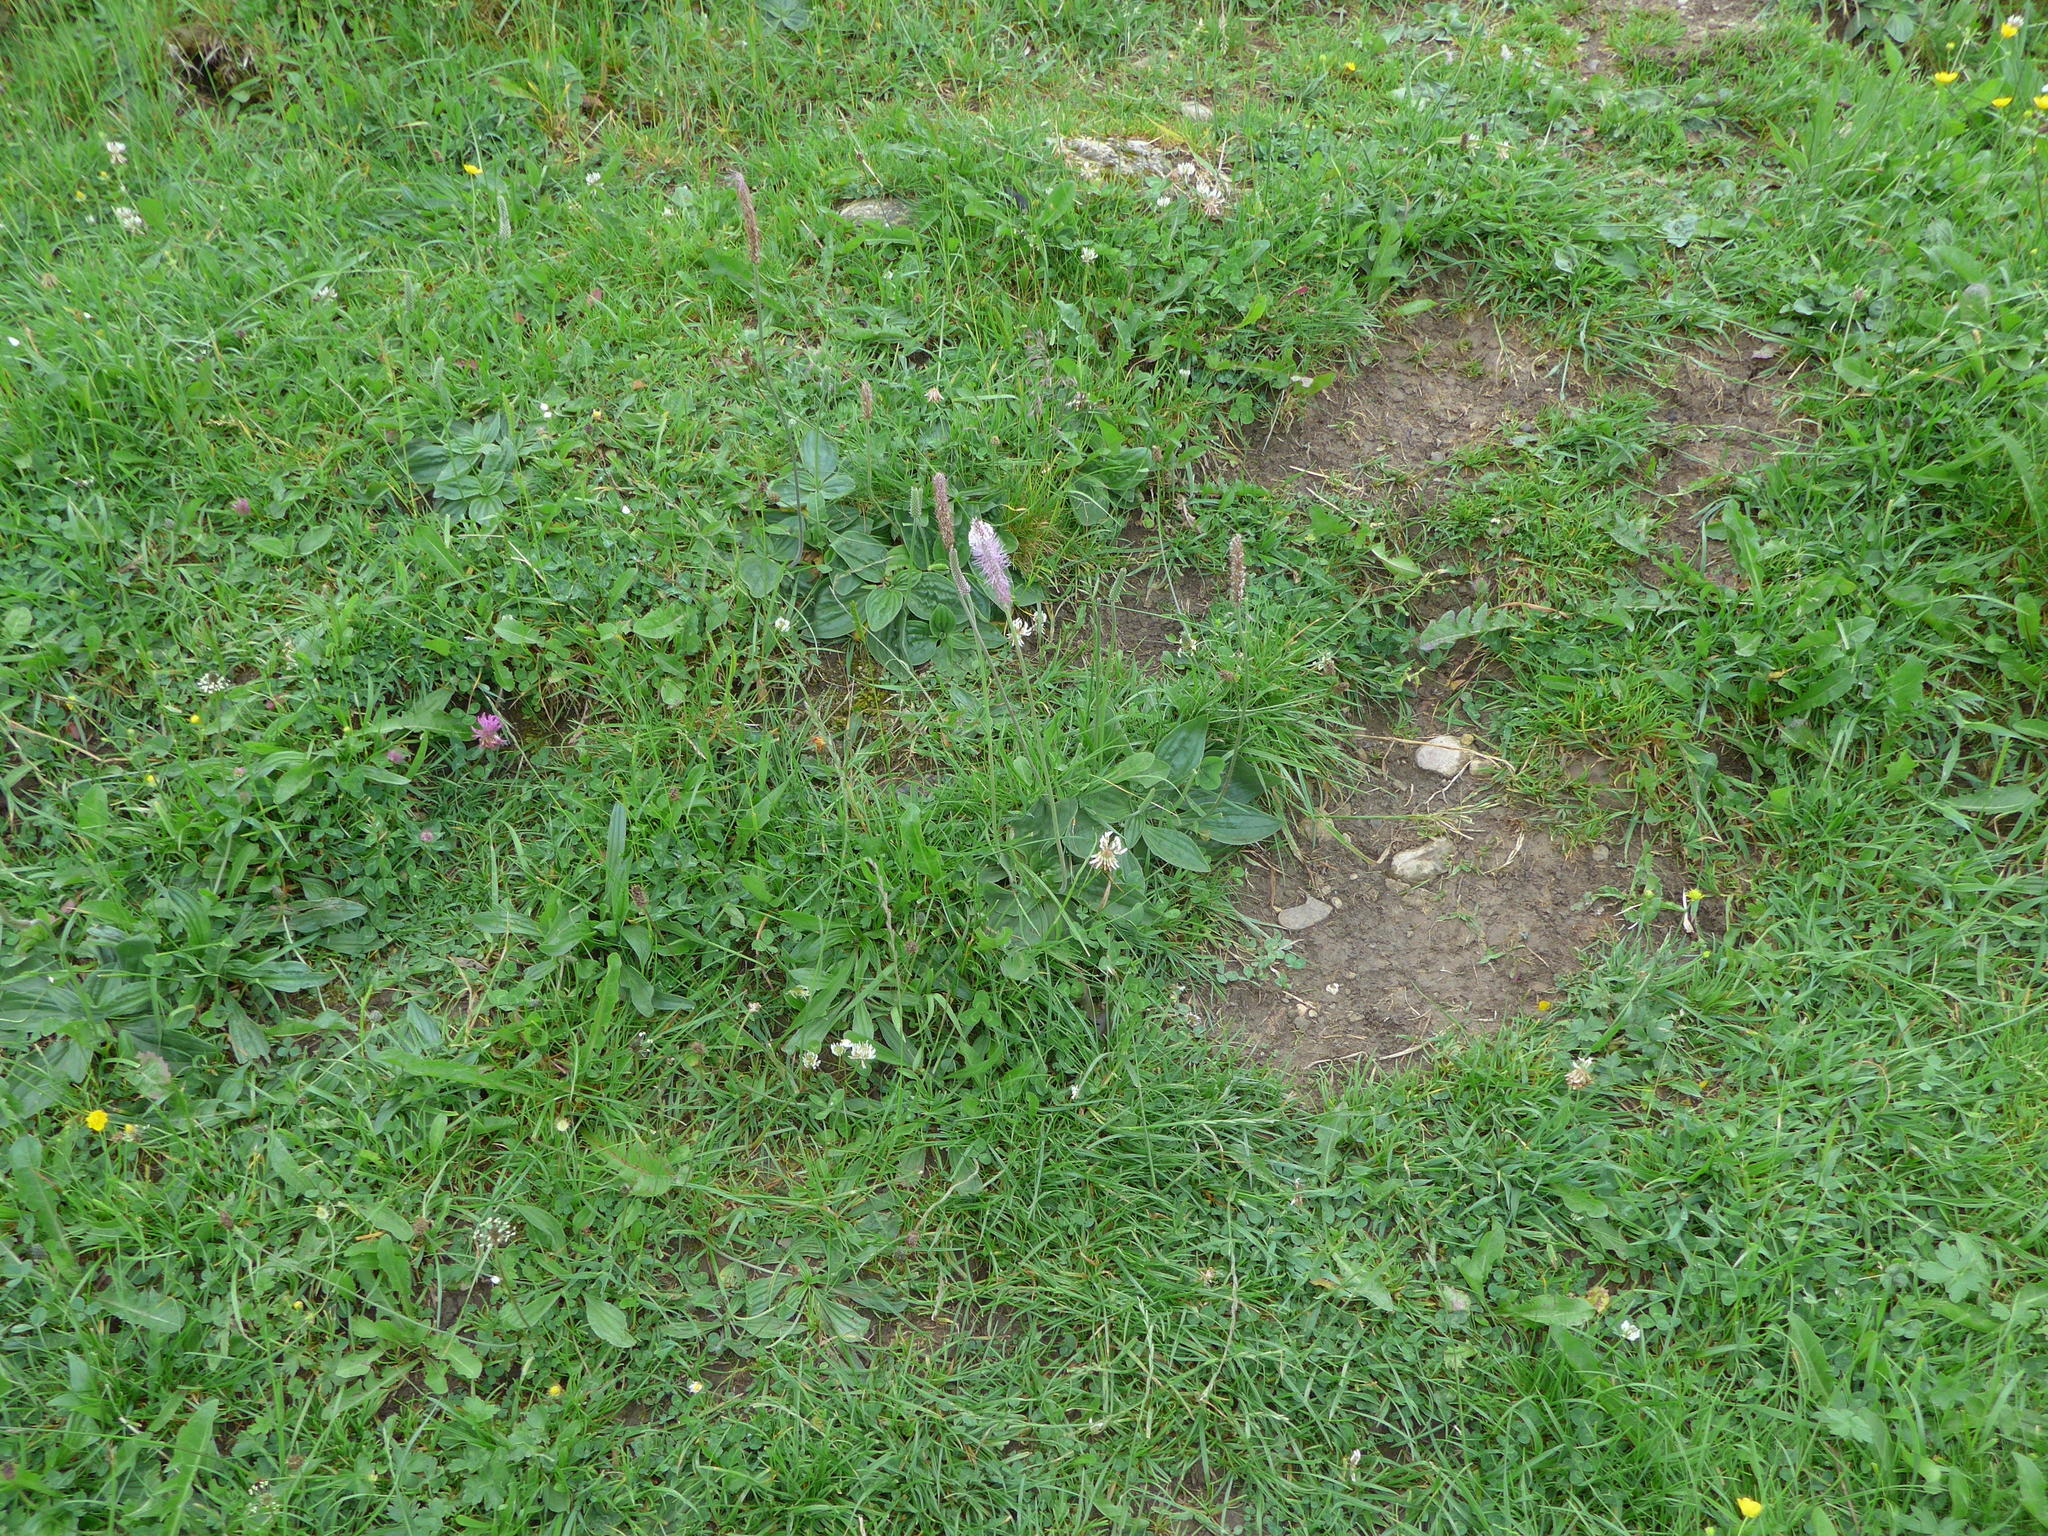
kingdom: Plantae
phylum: Tracheophyta
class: Magnoliopsida
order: Lamiales
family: Plantaginaceae
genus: Plantago
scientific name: Plantago media
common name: Hoary plantain
